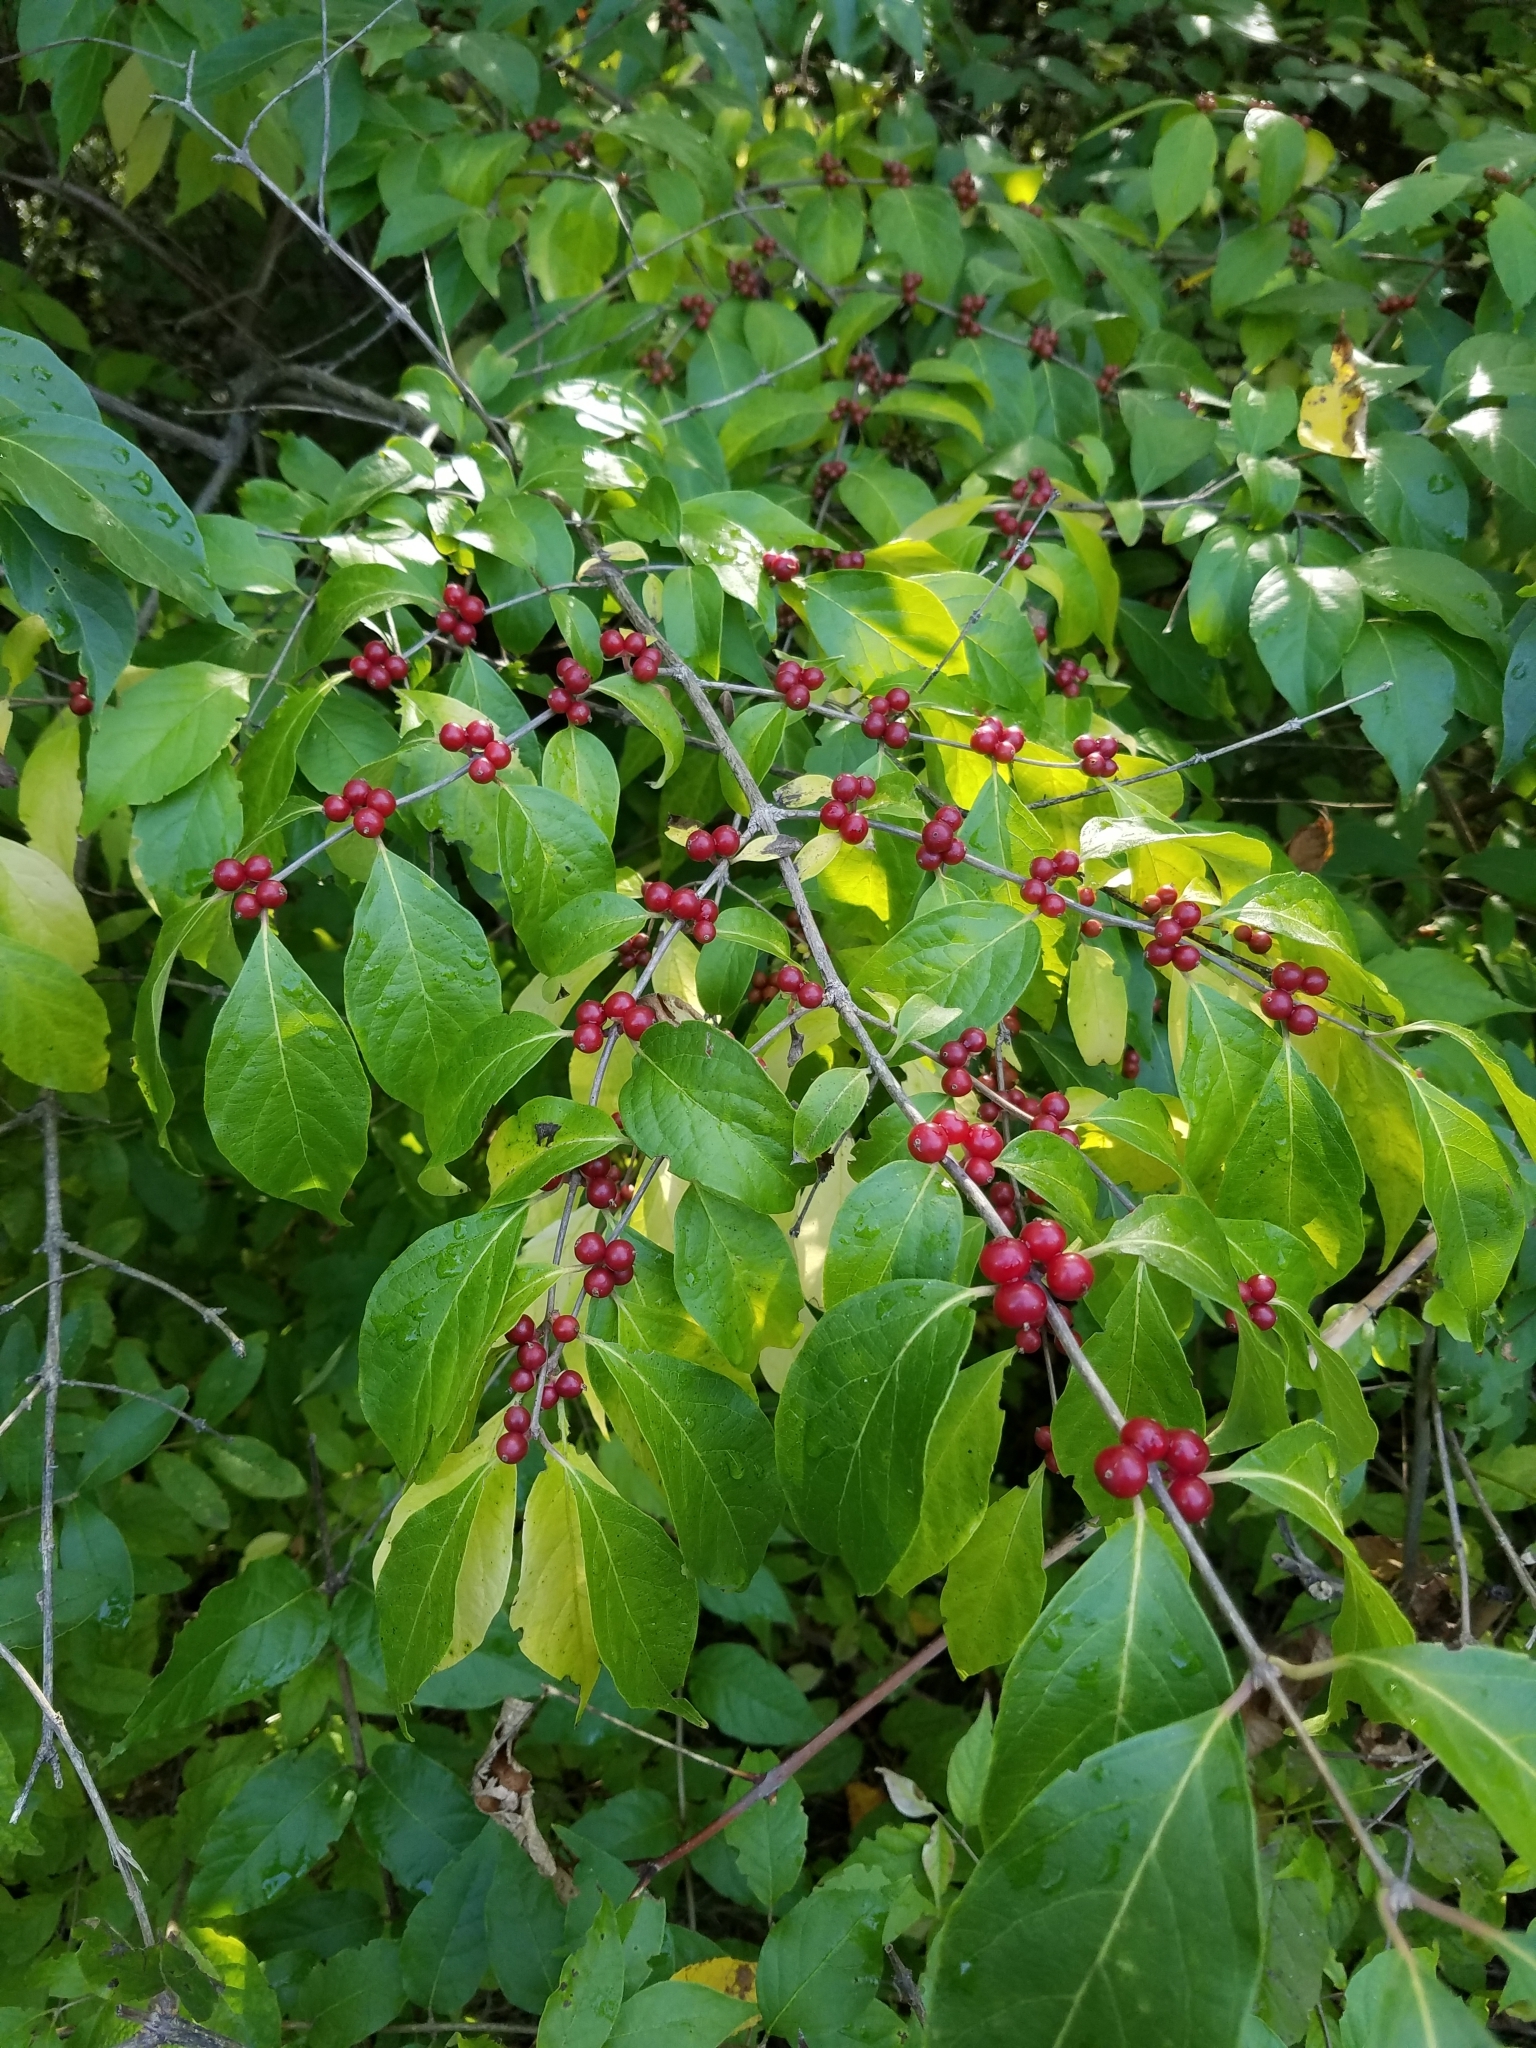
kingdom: Plantae
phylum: Tracheophyta
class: Magnoliopsida
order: Dipsacales
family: Caprifoliaceae
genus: Lonicera
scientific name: Lonicera maackii
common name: Amur honeysuckle
